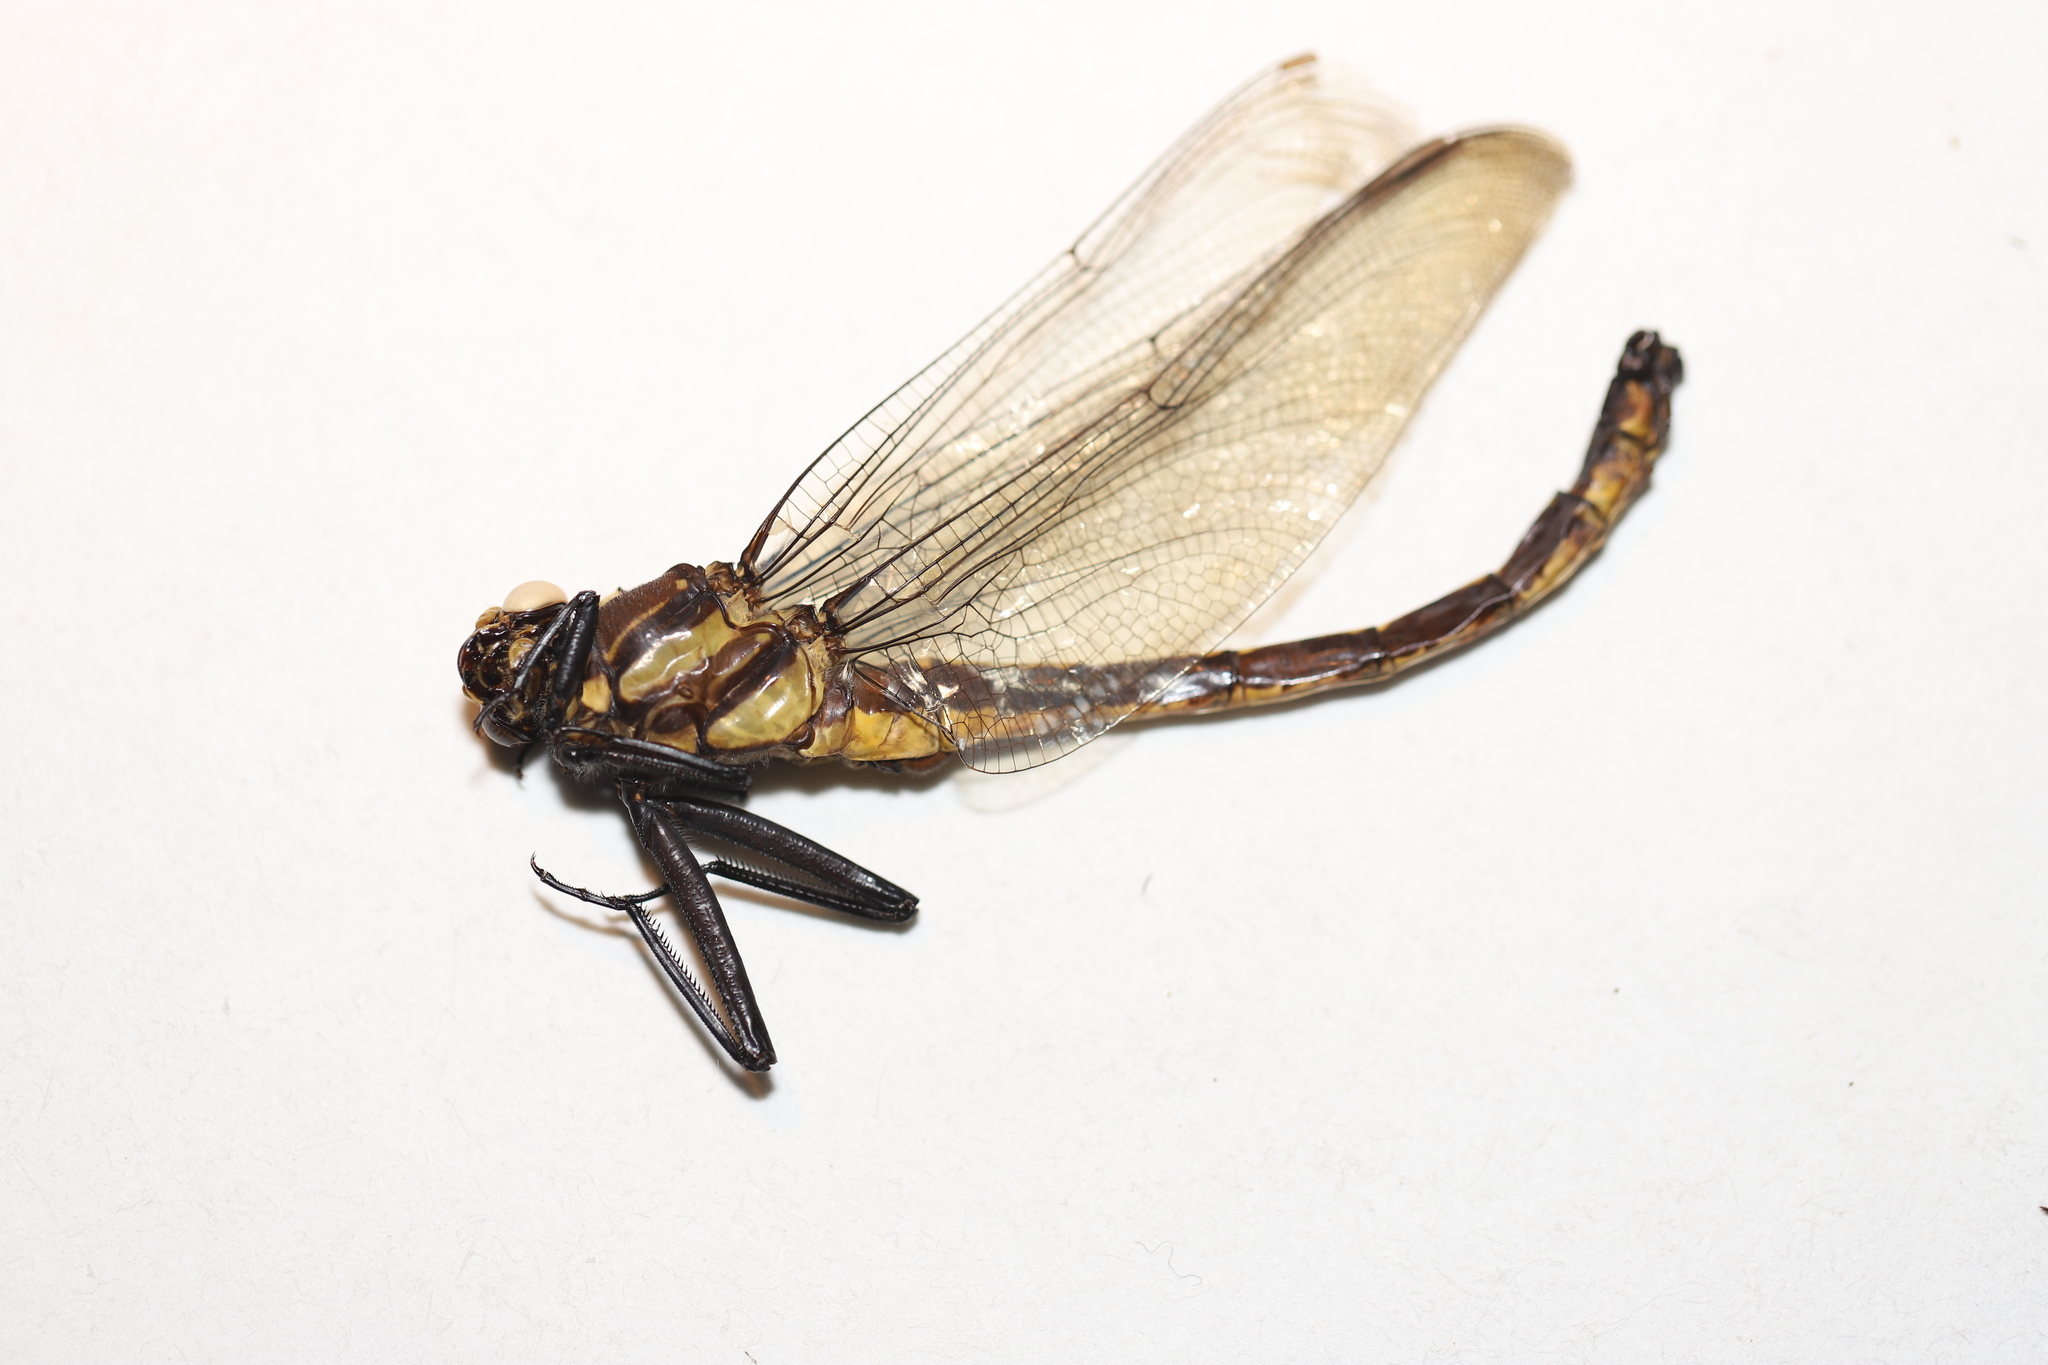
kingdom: Animalia
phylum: Arthropoda
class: Insecta
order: Odonata
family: Gomphidae
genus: Hagenius
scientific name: Hagenius brevistylus
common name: Dragonhunter
